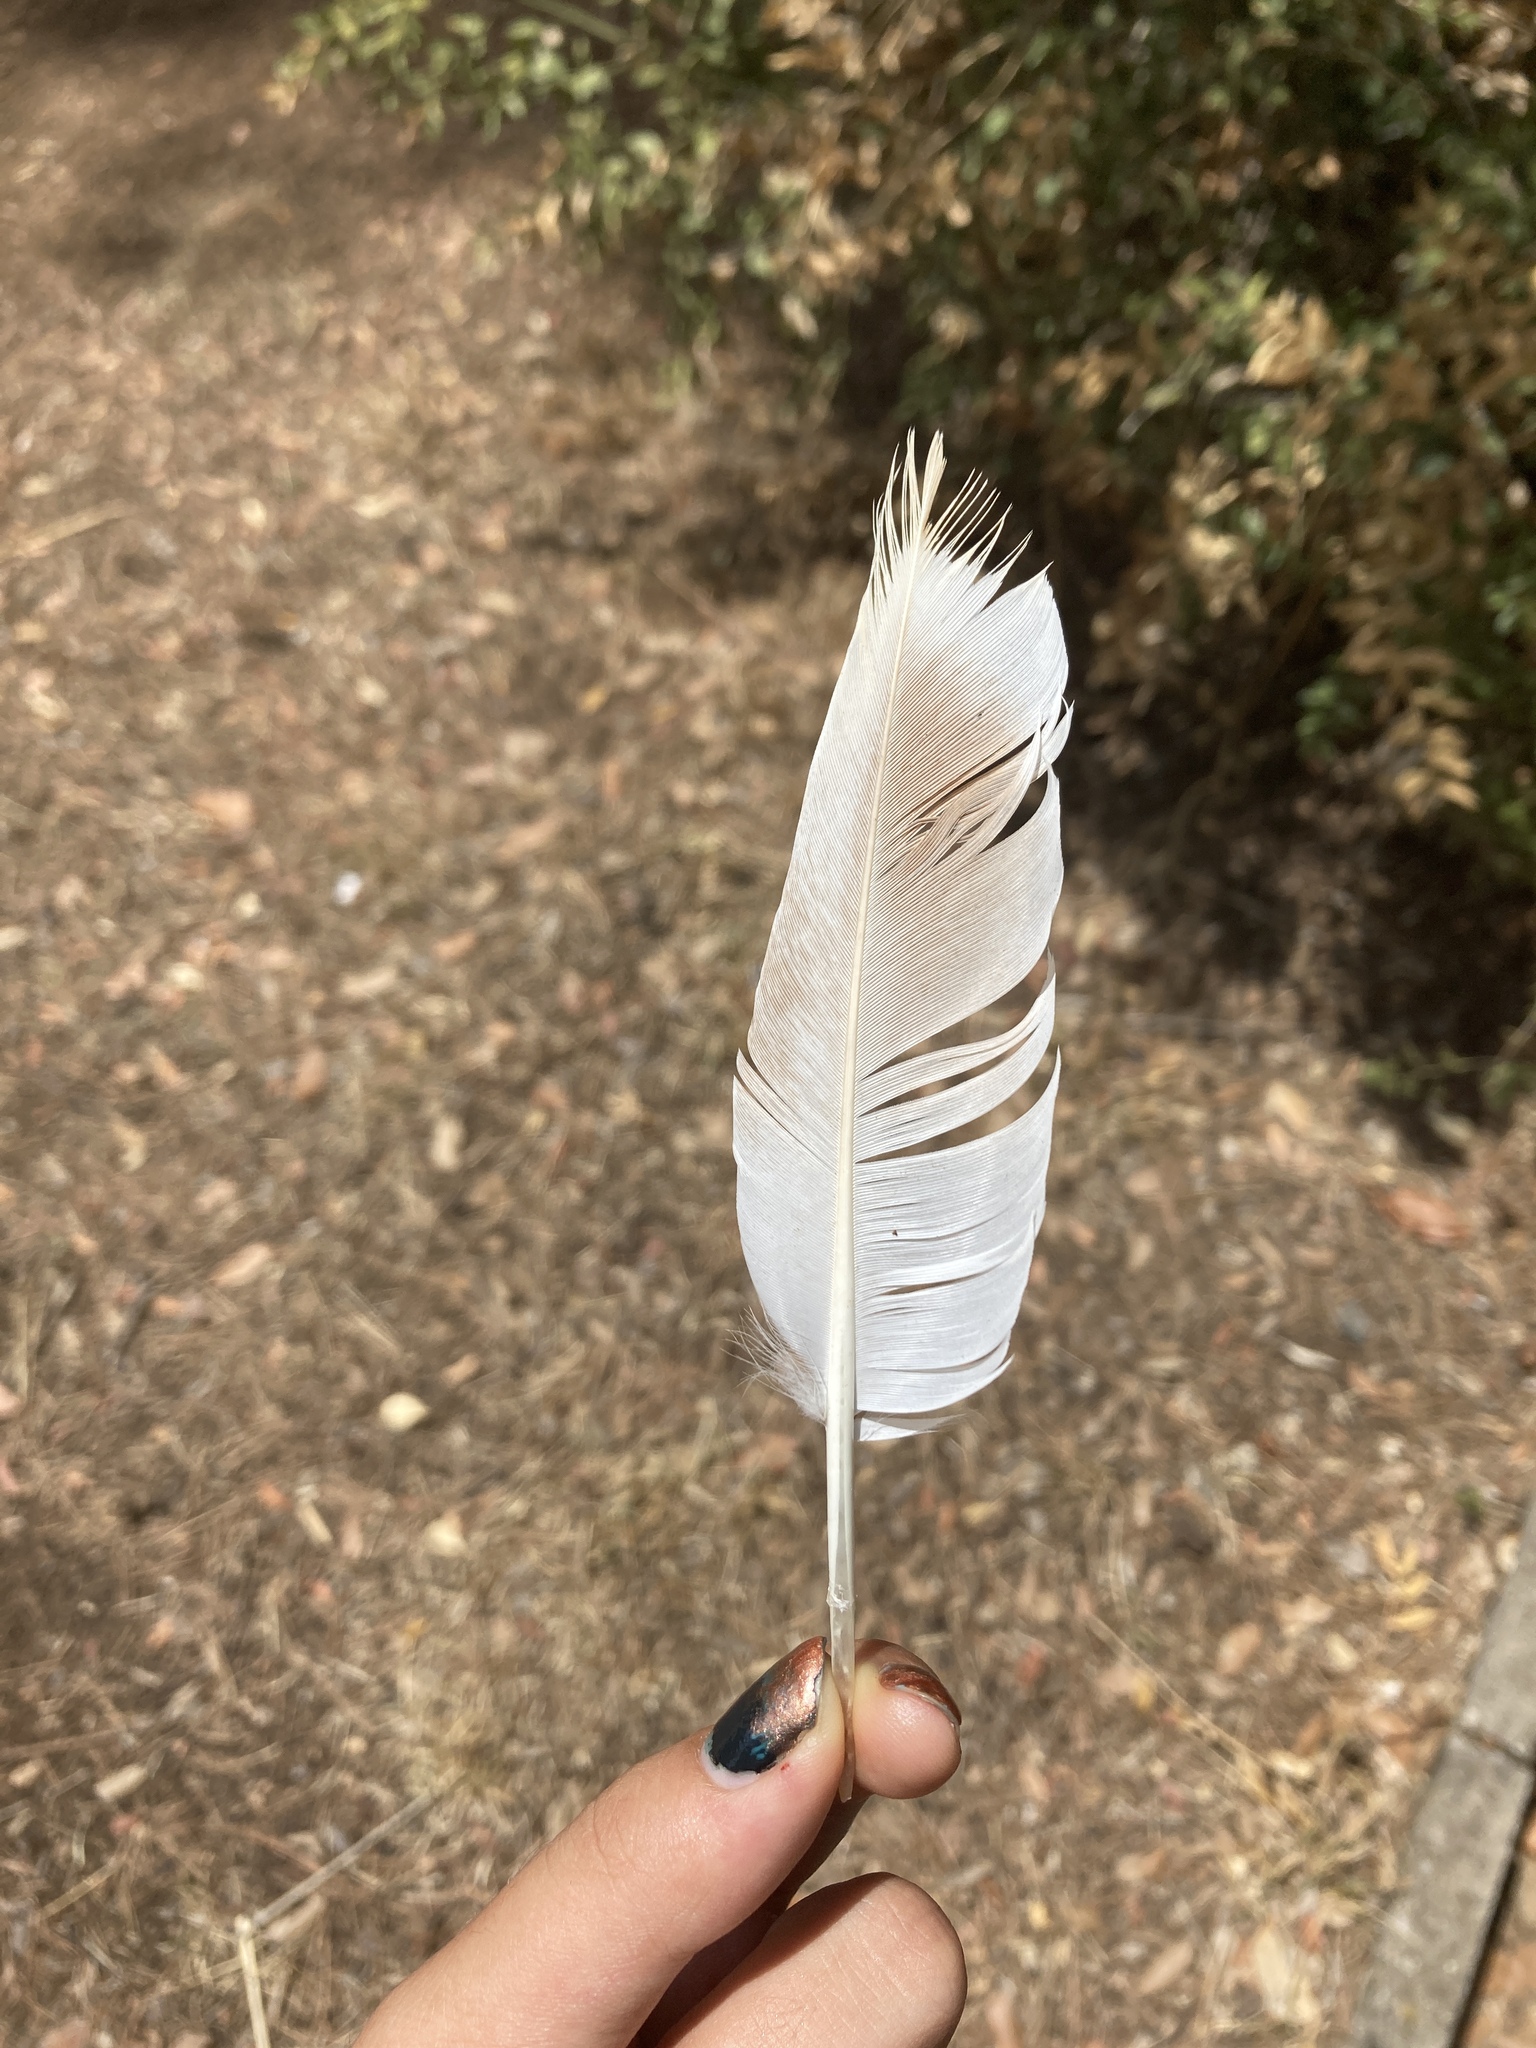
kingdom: Animalia
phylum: Chordata
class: Aves
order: Columbiformes
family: Columbidae
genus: Columba
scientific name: Columba livia
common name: Rock pigeon
